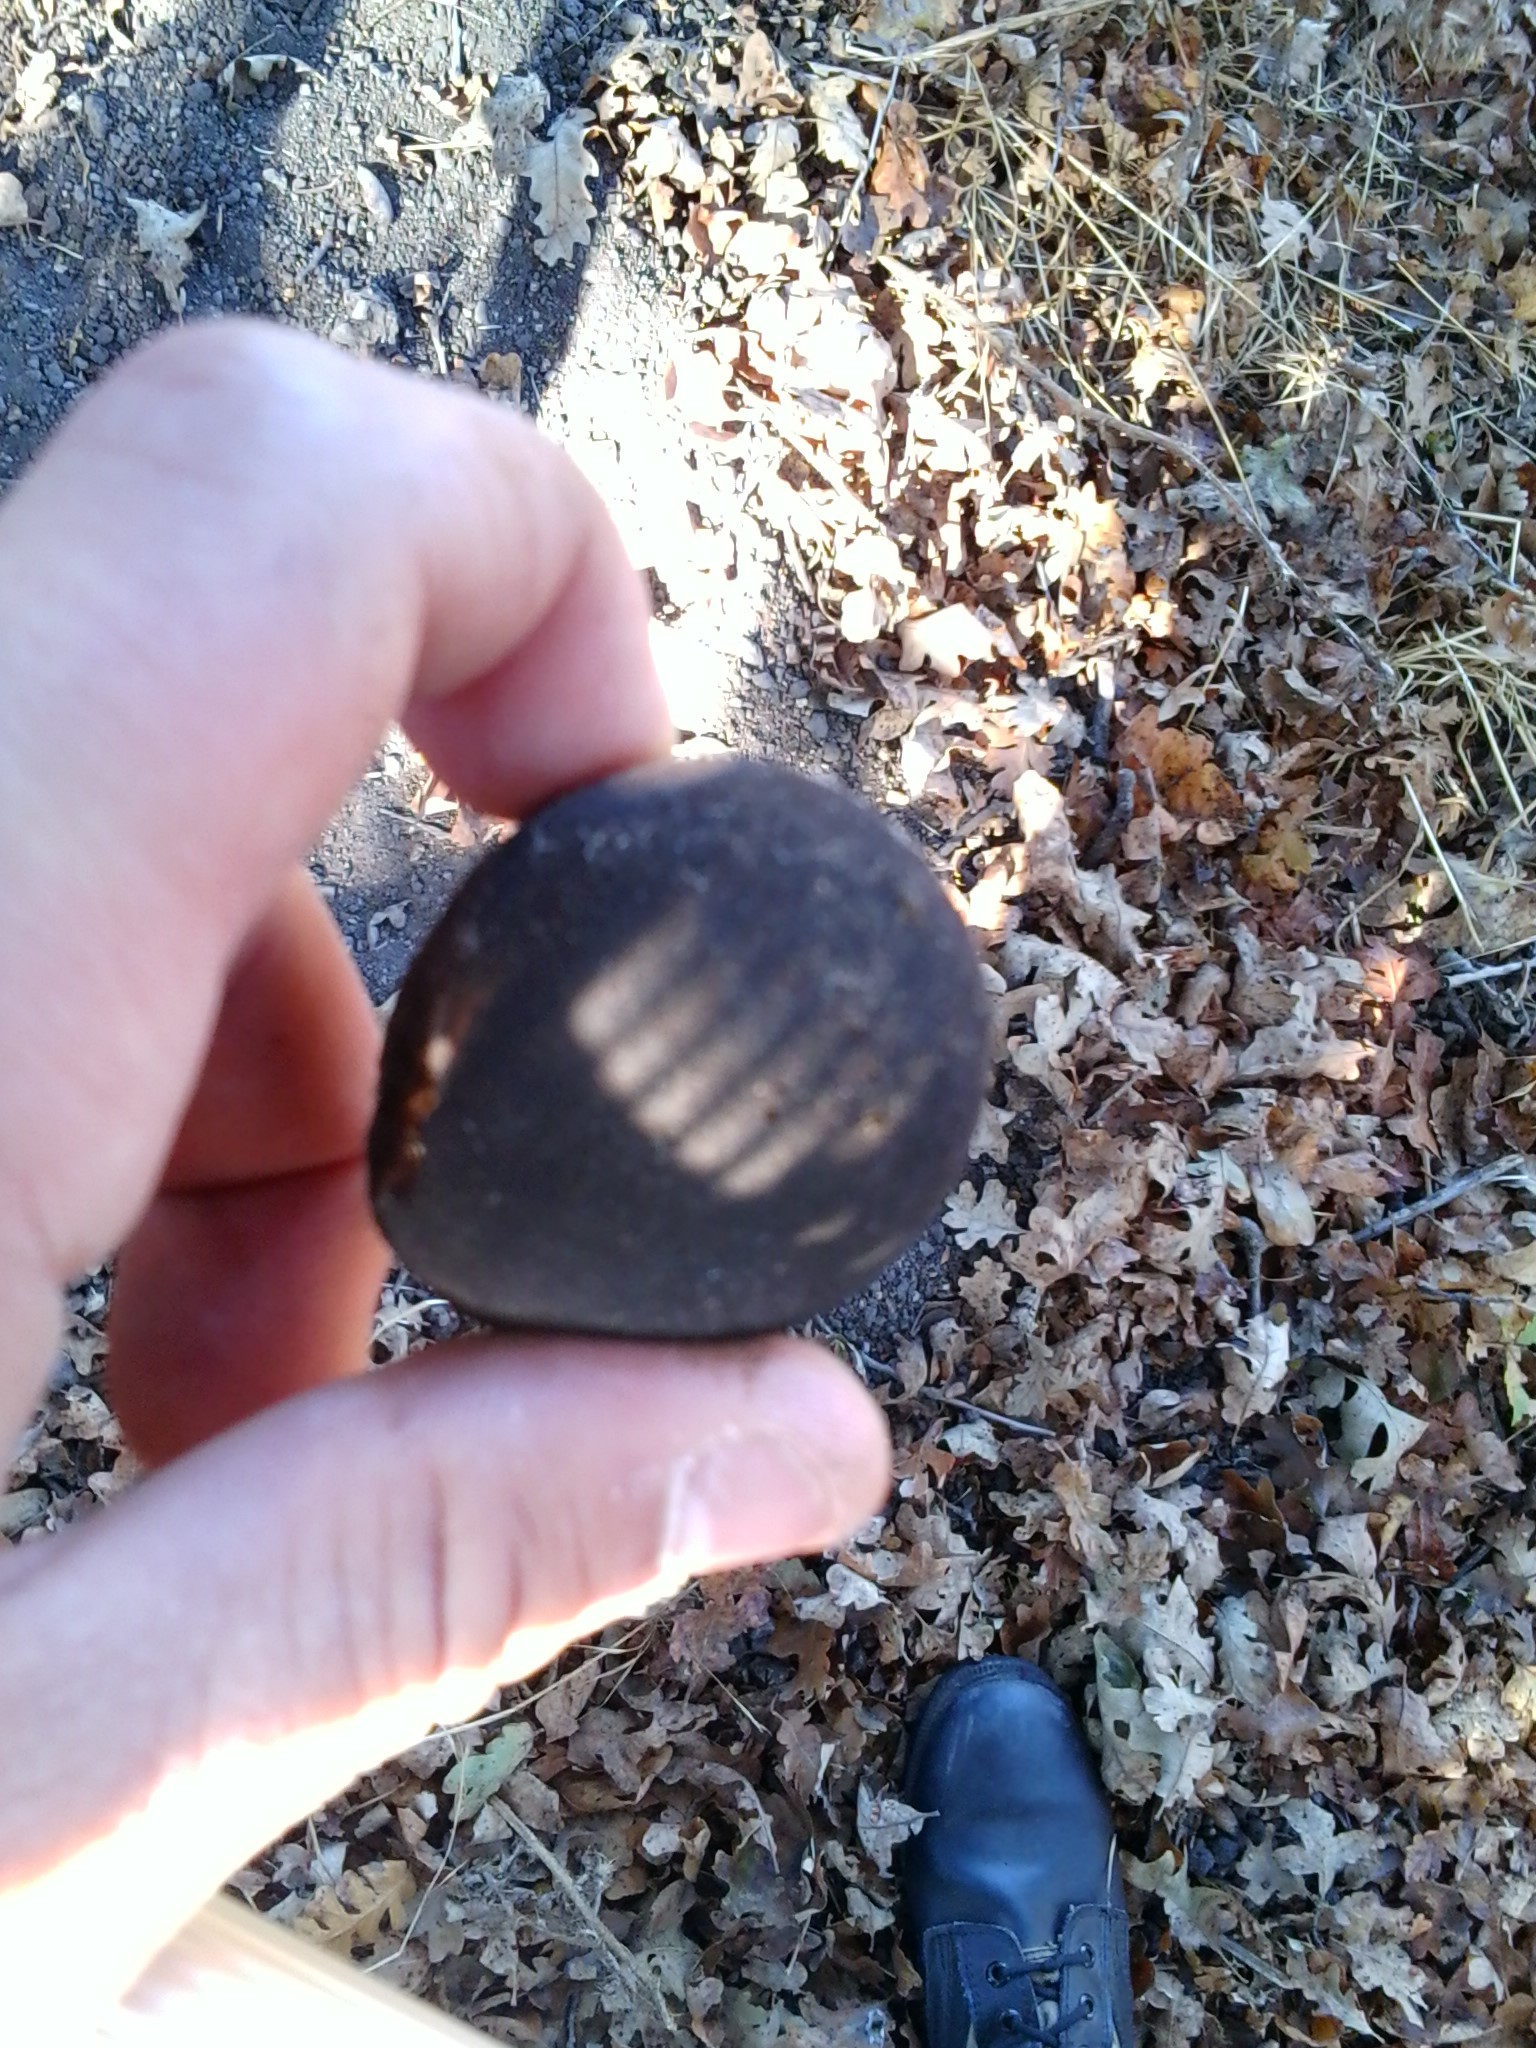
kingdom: Animalia
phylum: Arthropoda
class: Insecta
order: Hymenoptera
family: Cynipidae
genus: Andricus
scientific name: Andricus quercuscalifornicus
